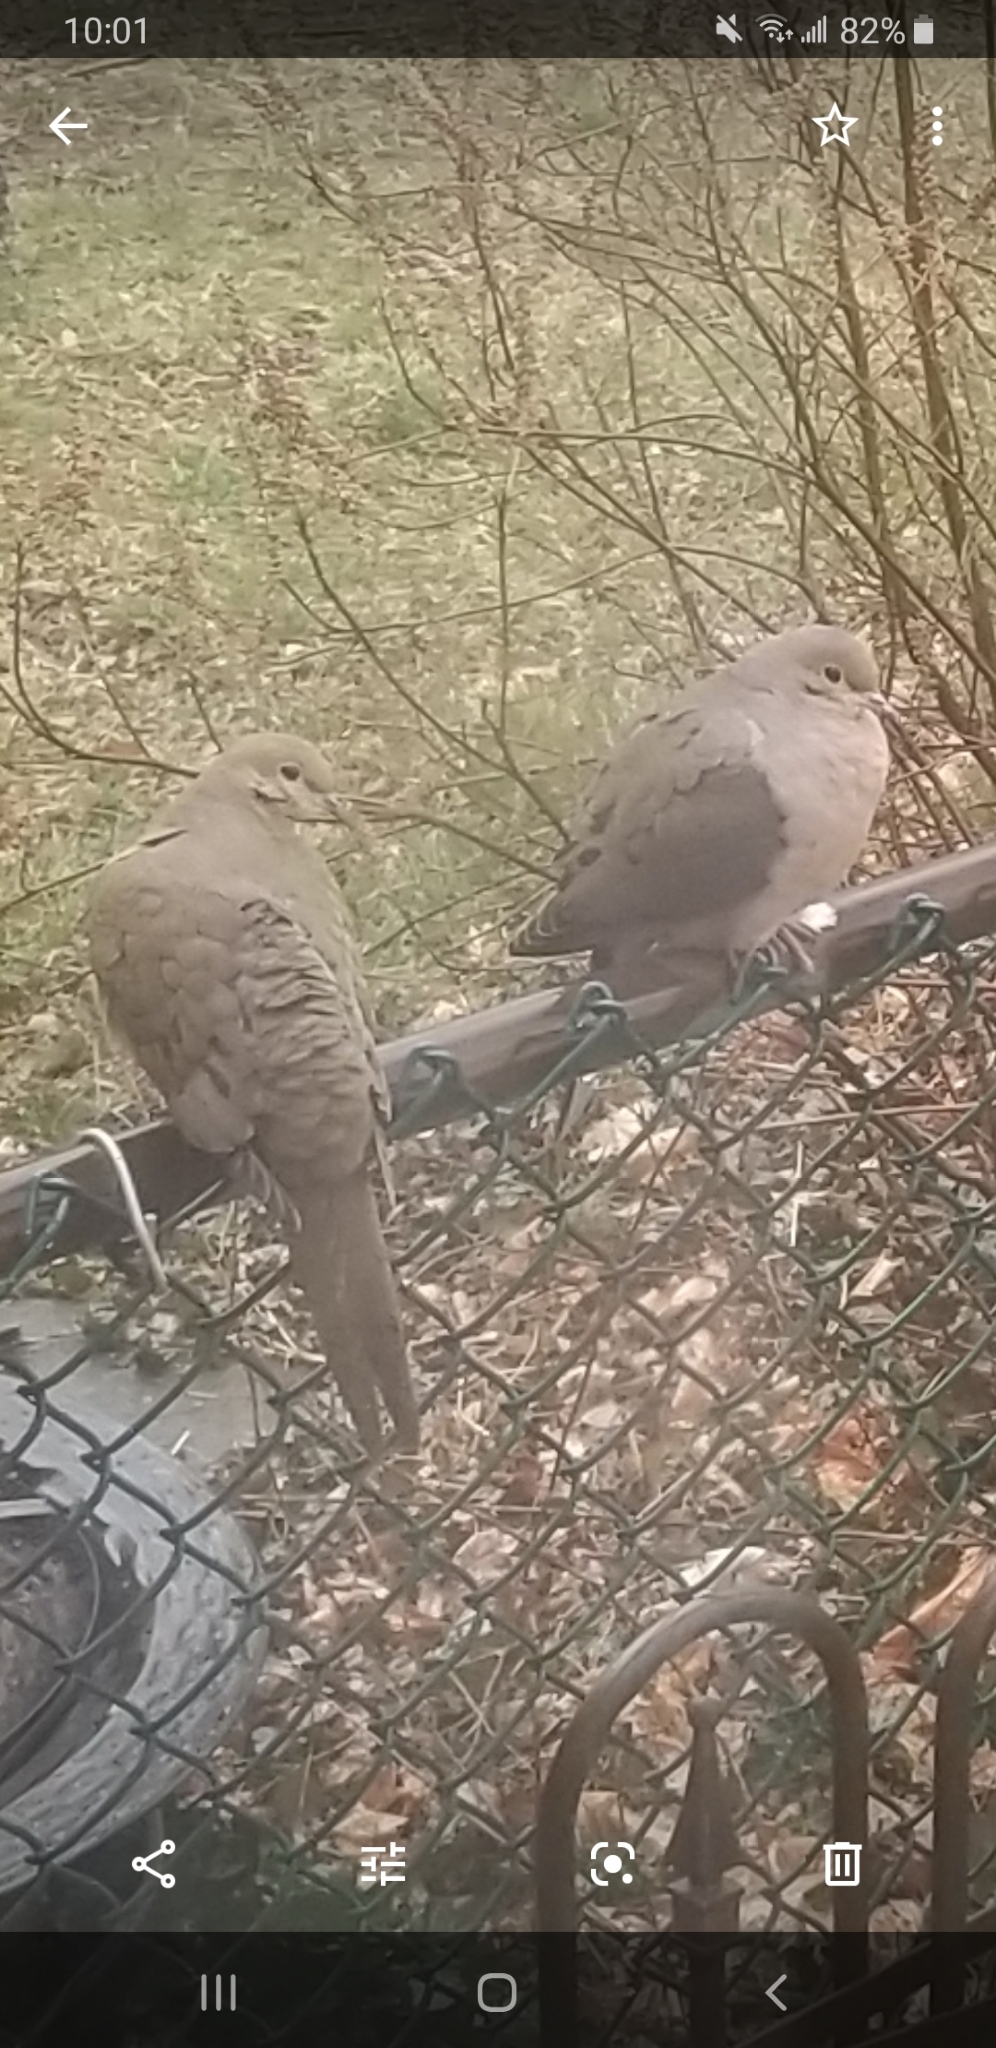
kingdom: Animalia
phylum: Chordata
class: Aves
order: Columbiformes
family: Columbidae
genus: Zenaida
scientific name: Zenaida macroura
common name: Mourning dove
